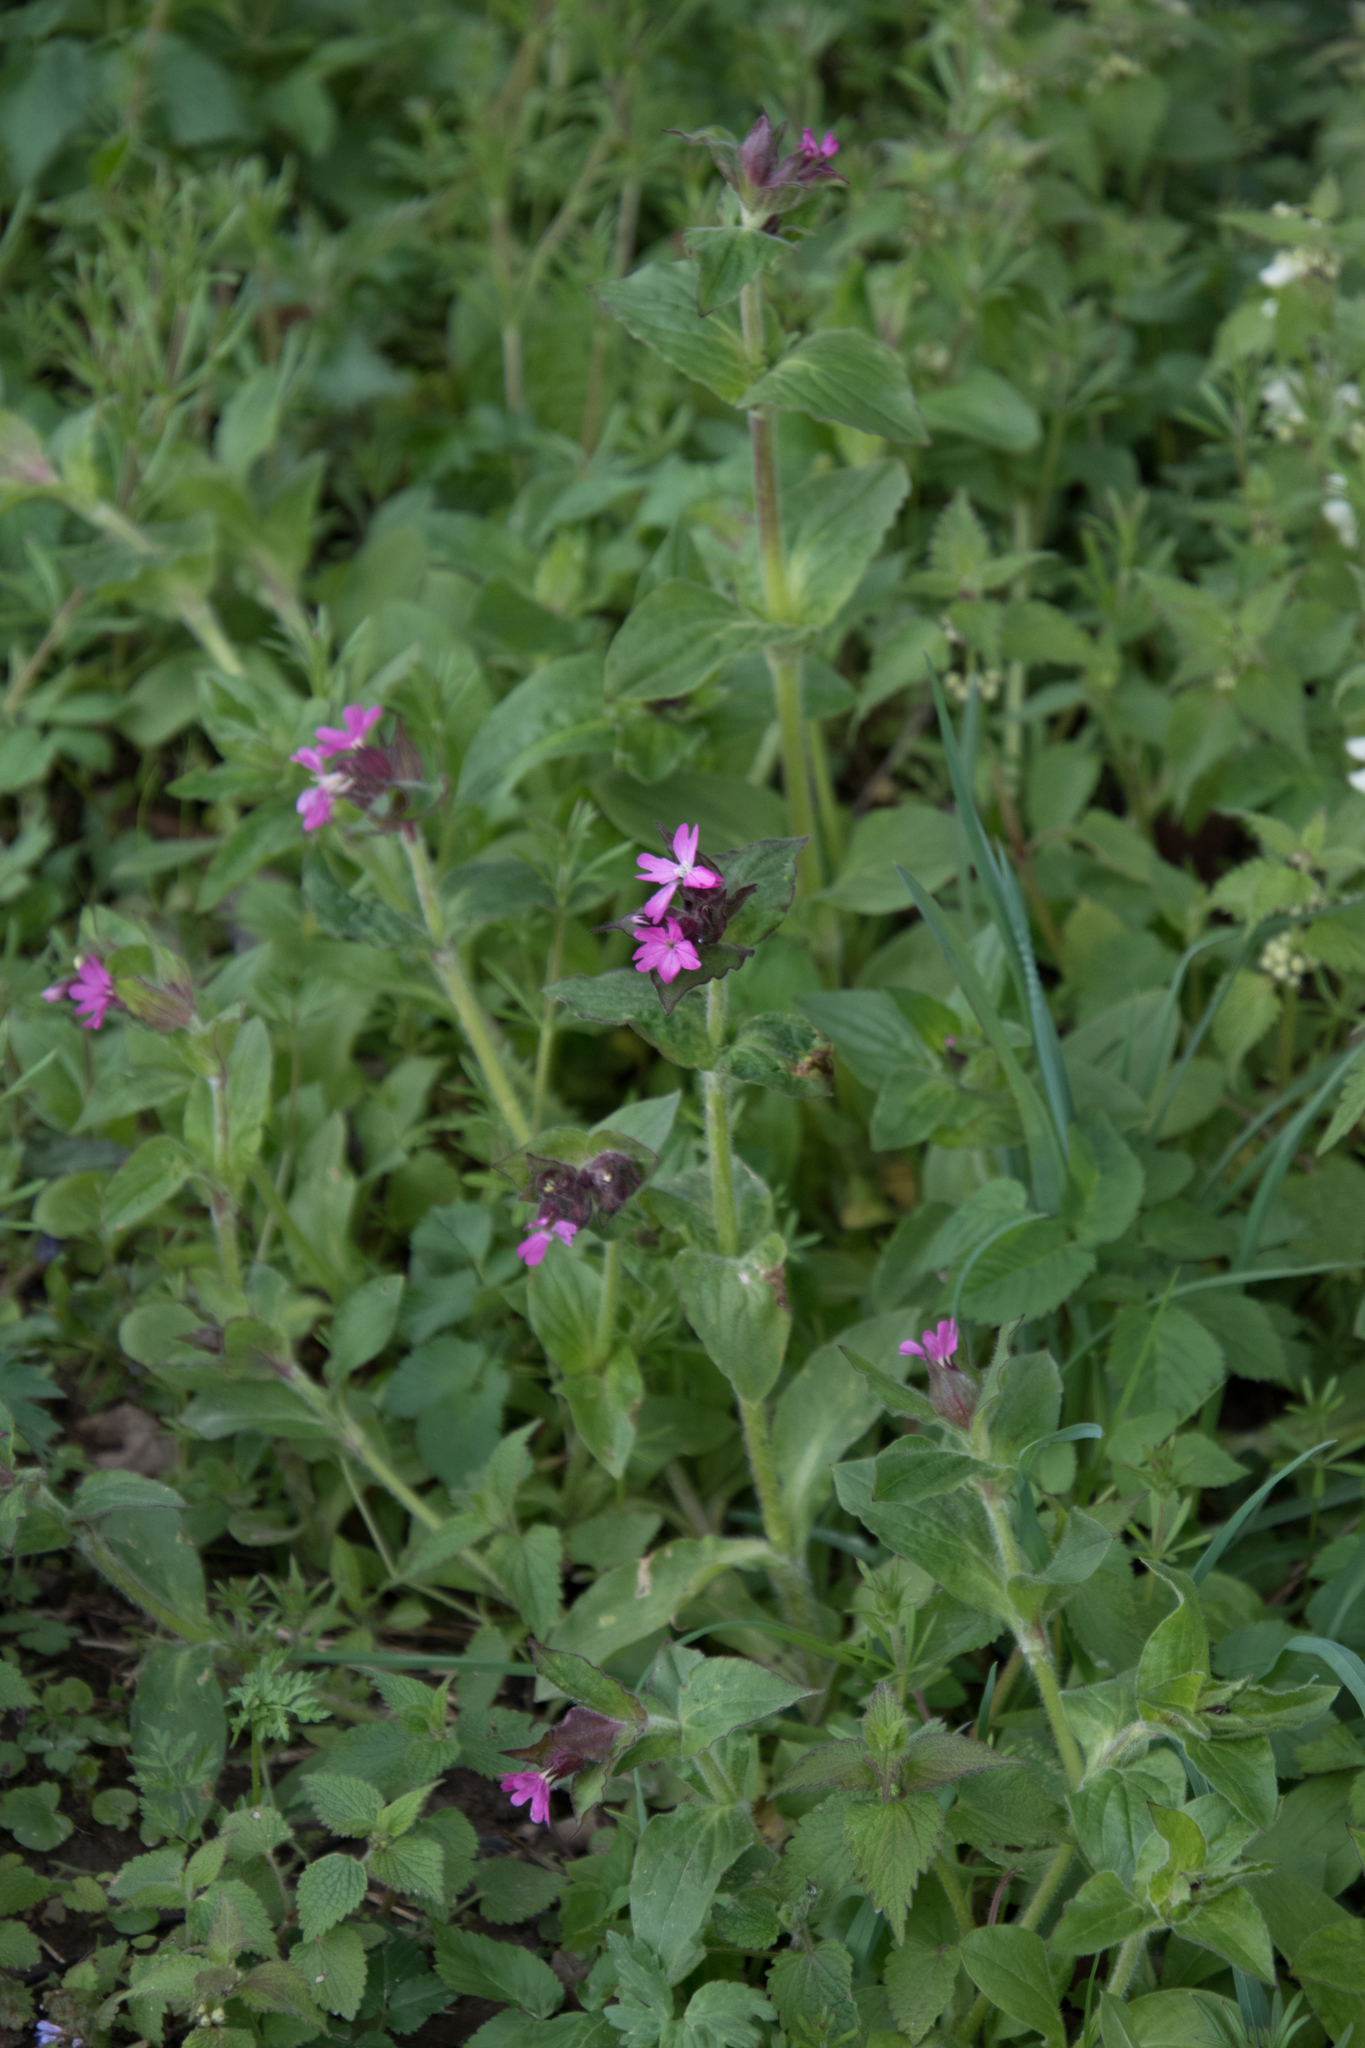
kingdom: Plantae
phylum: Tracheophyta
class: Magnoliopsida
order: Caryophyllales
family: Caryophyllaceae
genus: Silene
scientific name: Silene dioica
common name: Red campion
